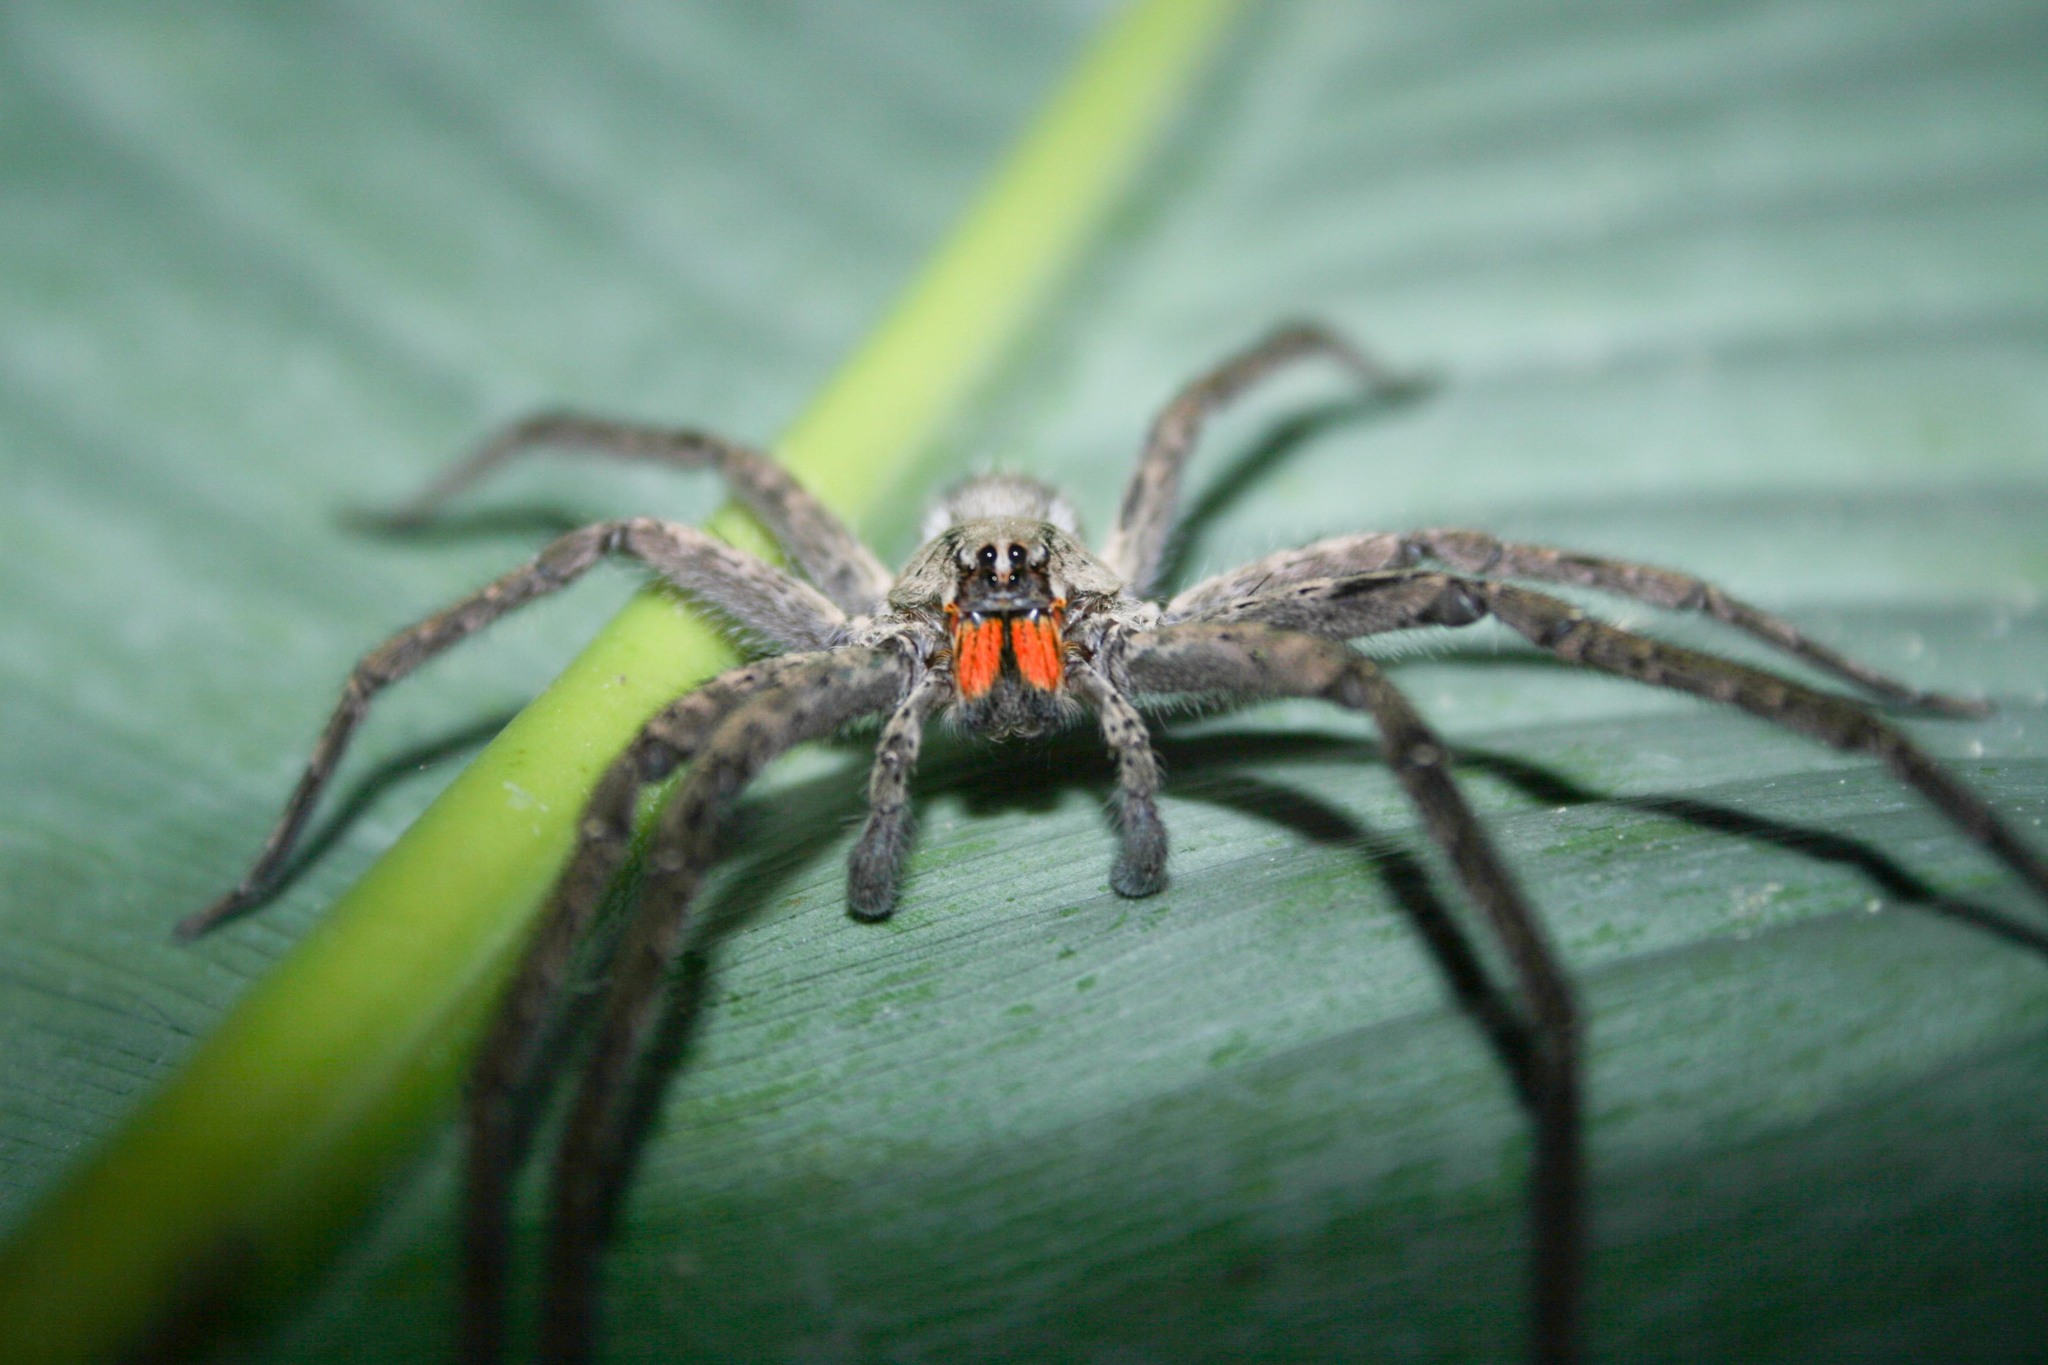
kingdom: Animalia
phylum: Arthropoda
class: Arachnida
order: Araneae
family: Trechaleidae
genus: Cupiennius
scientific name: Cupiennius chiapanensis
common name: Wandering spiders
